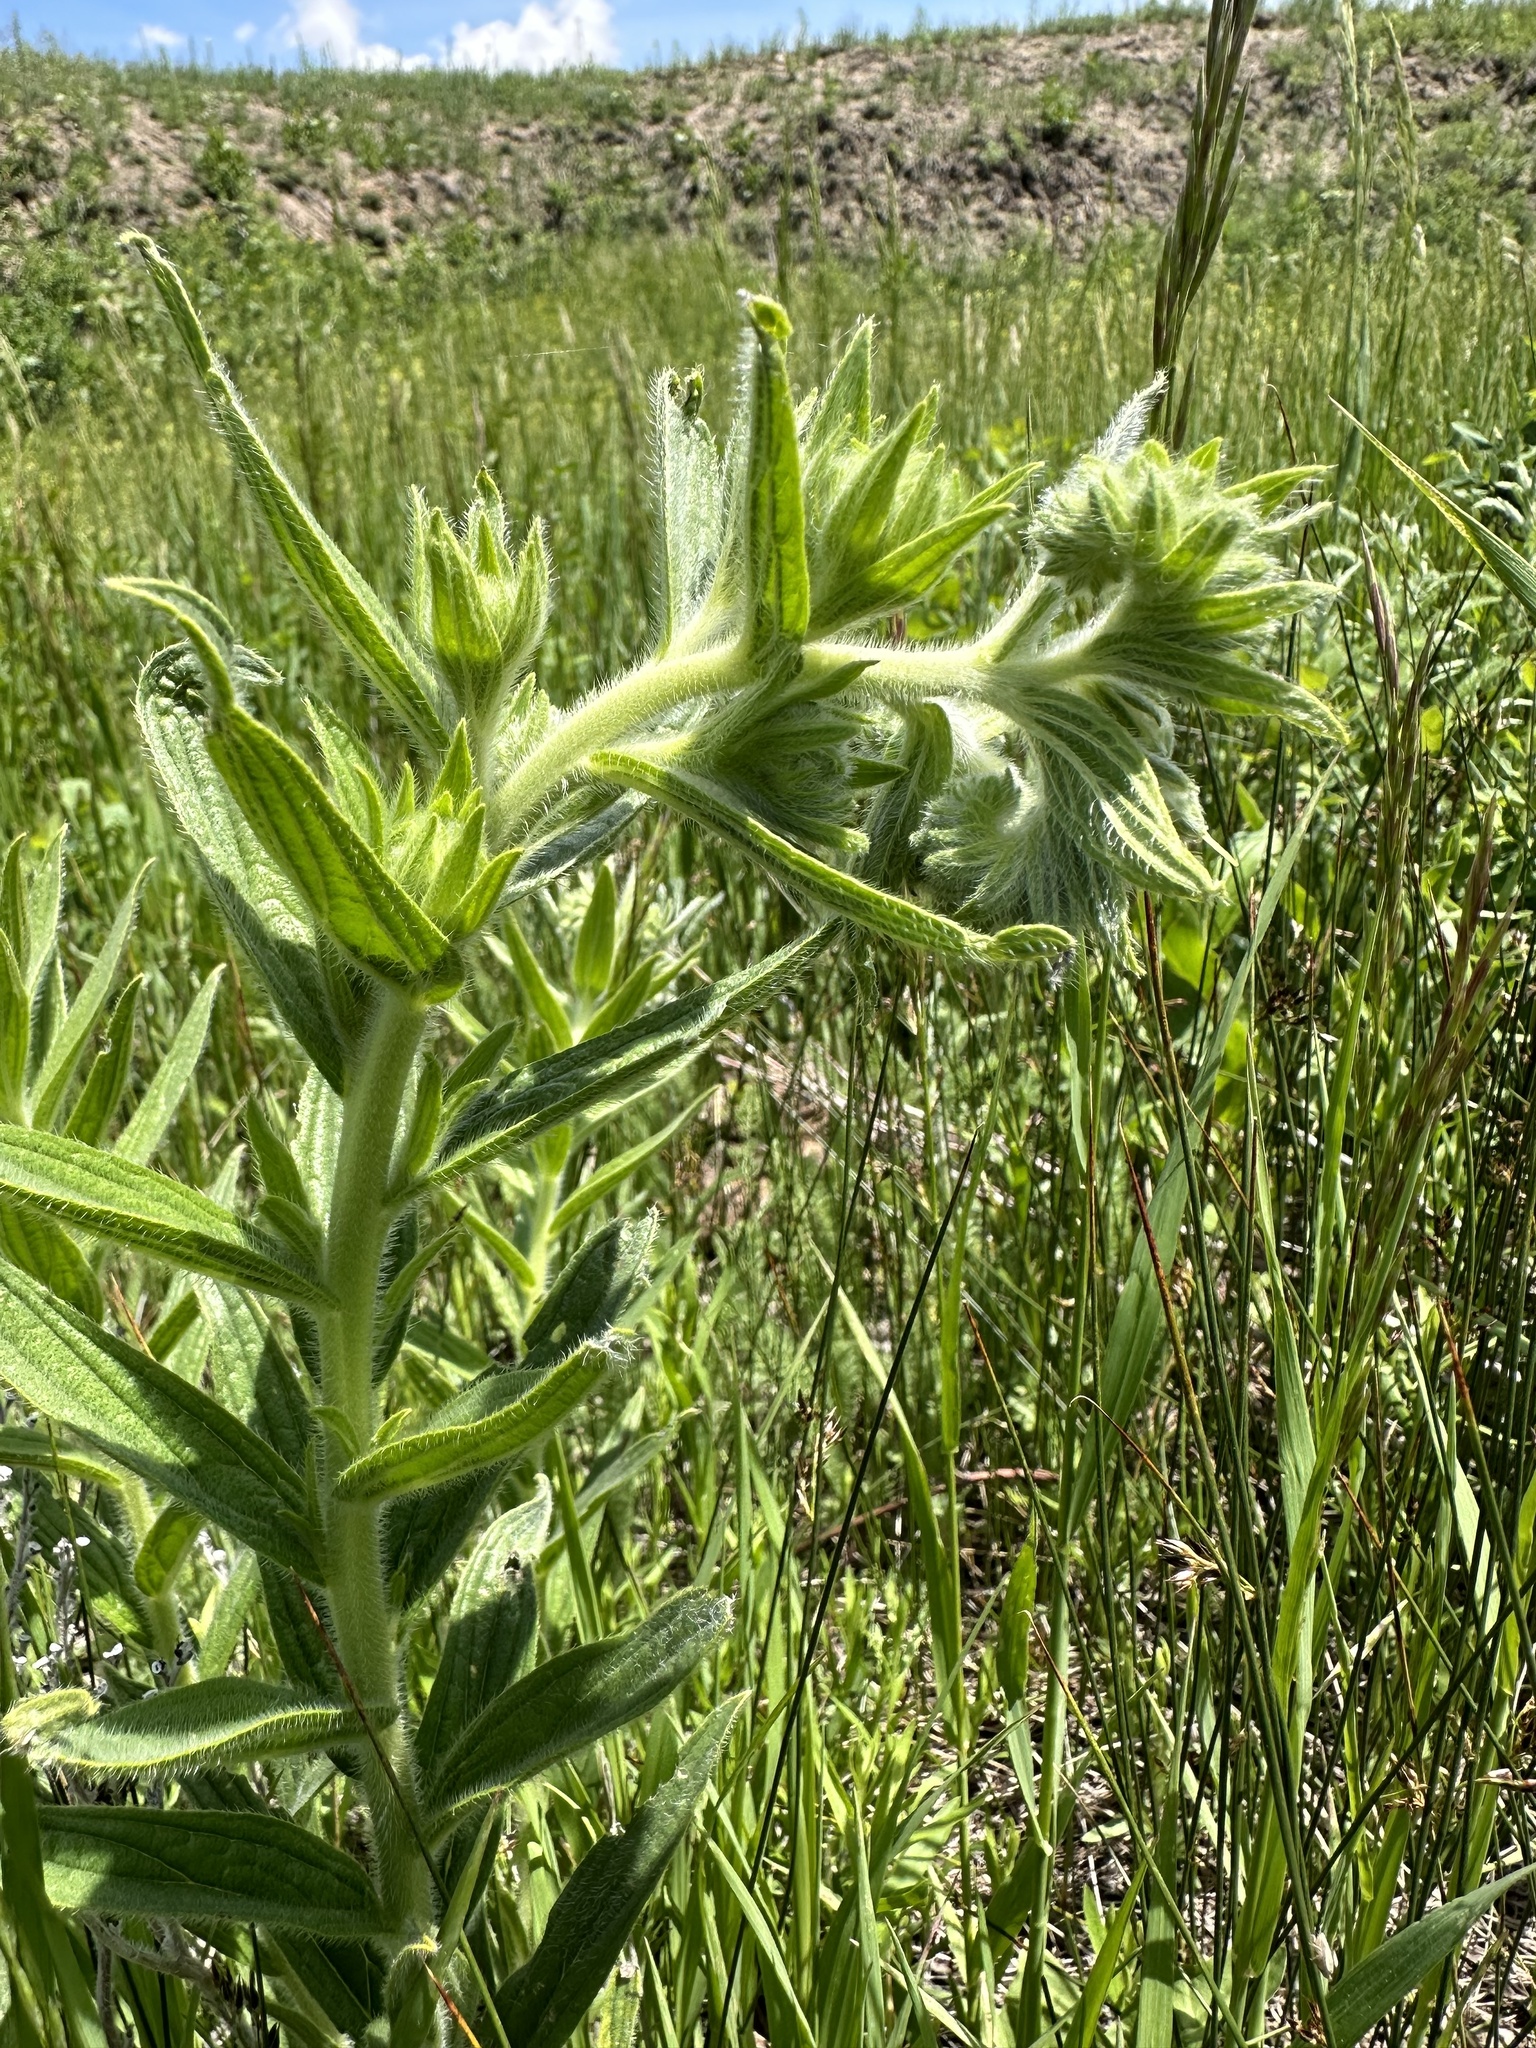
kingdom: Plantae
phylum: Tracheophyta
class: Magnoliopsida
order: Boraginales
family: Boraginaceae
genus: Lithospermum
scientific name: Lithospermum occidentale
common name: Western false gromwell
